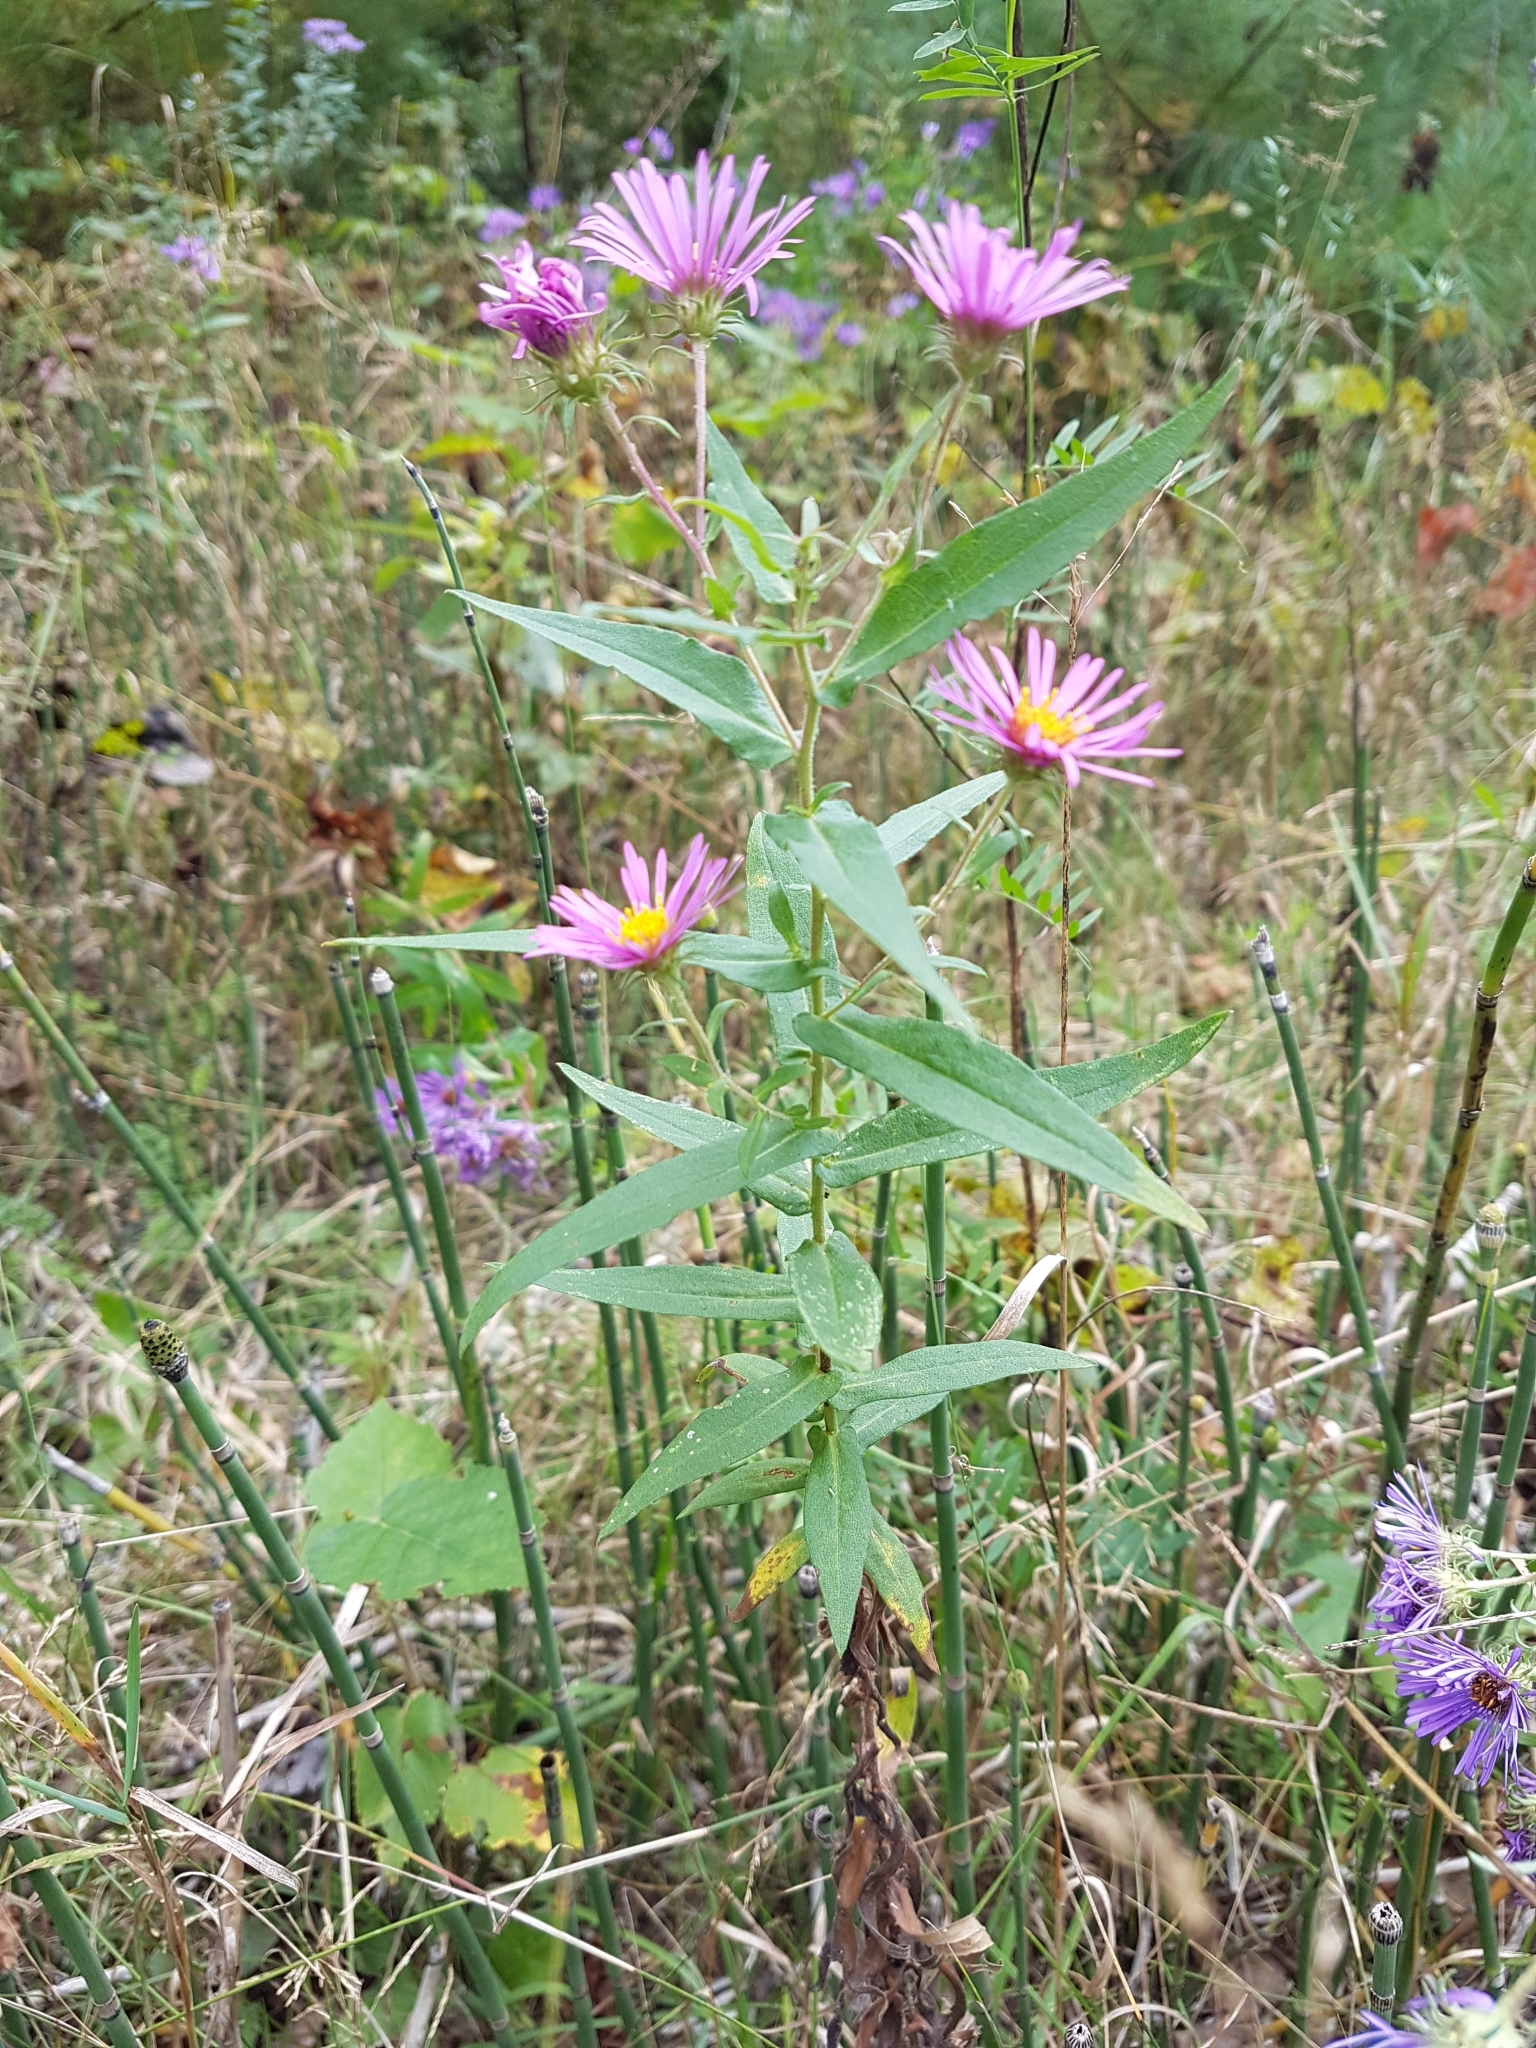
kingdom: Plantae
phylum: Tracheophyta
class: Magnoliopsida
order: Asterales
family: Asteraceae
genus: Symphyotrichum
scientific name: Symphyotrichum novae-angliae
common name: Michaelmas daisy
